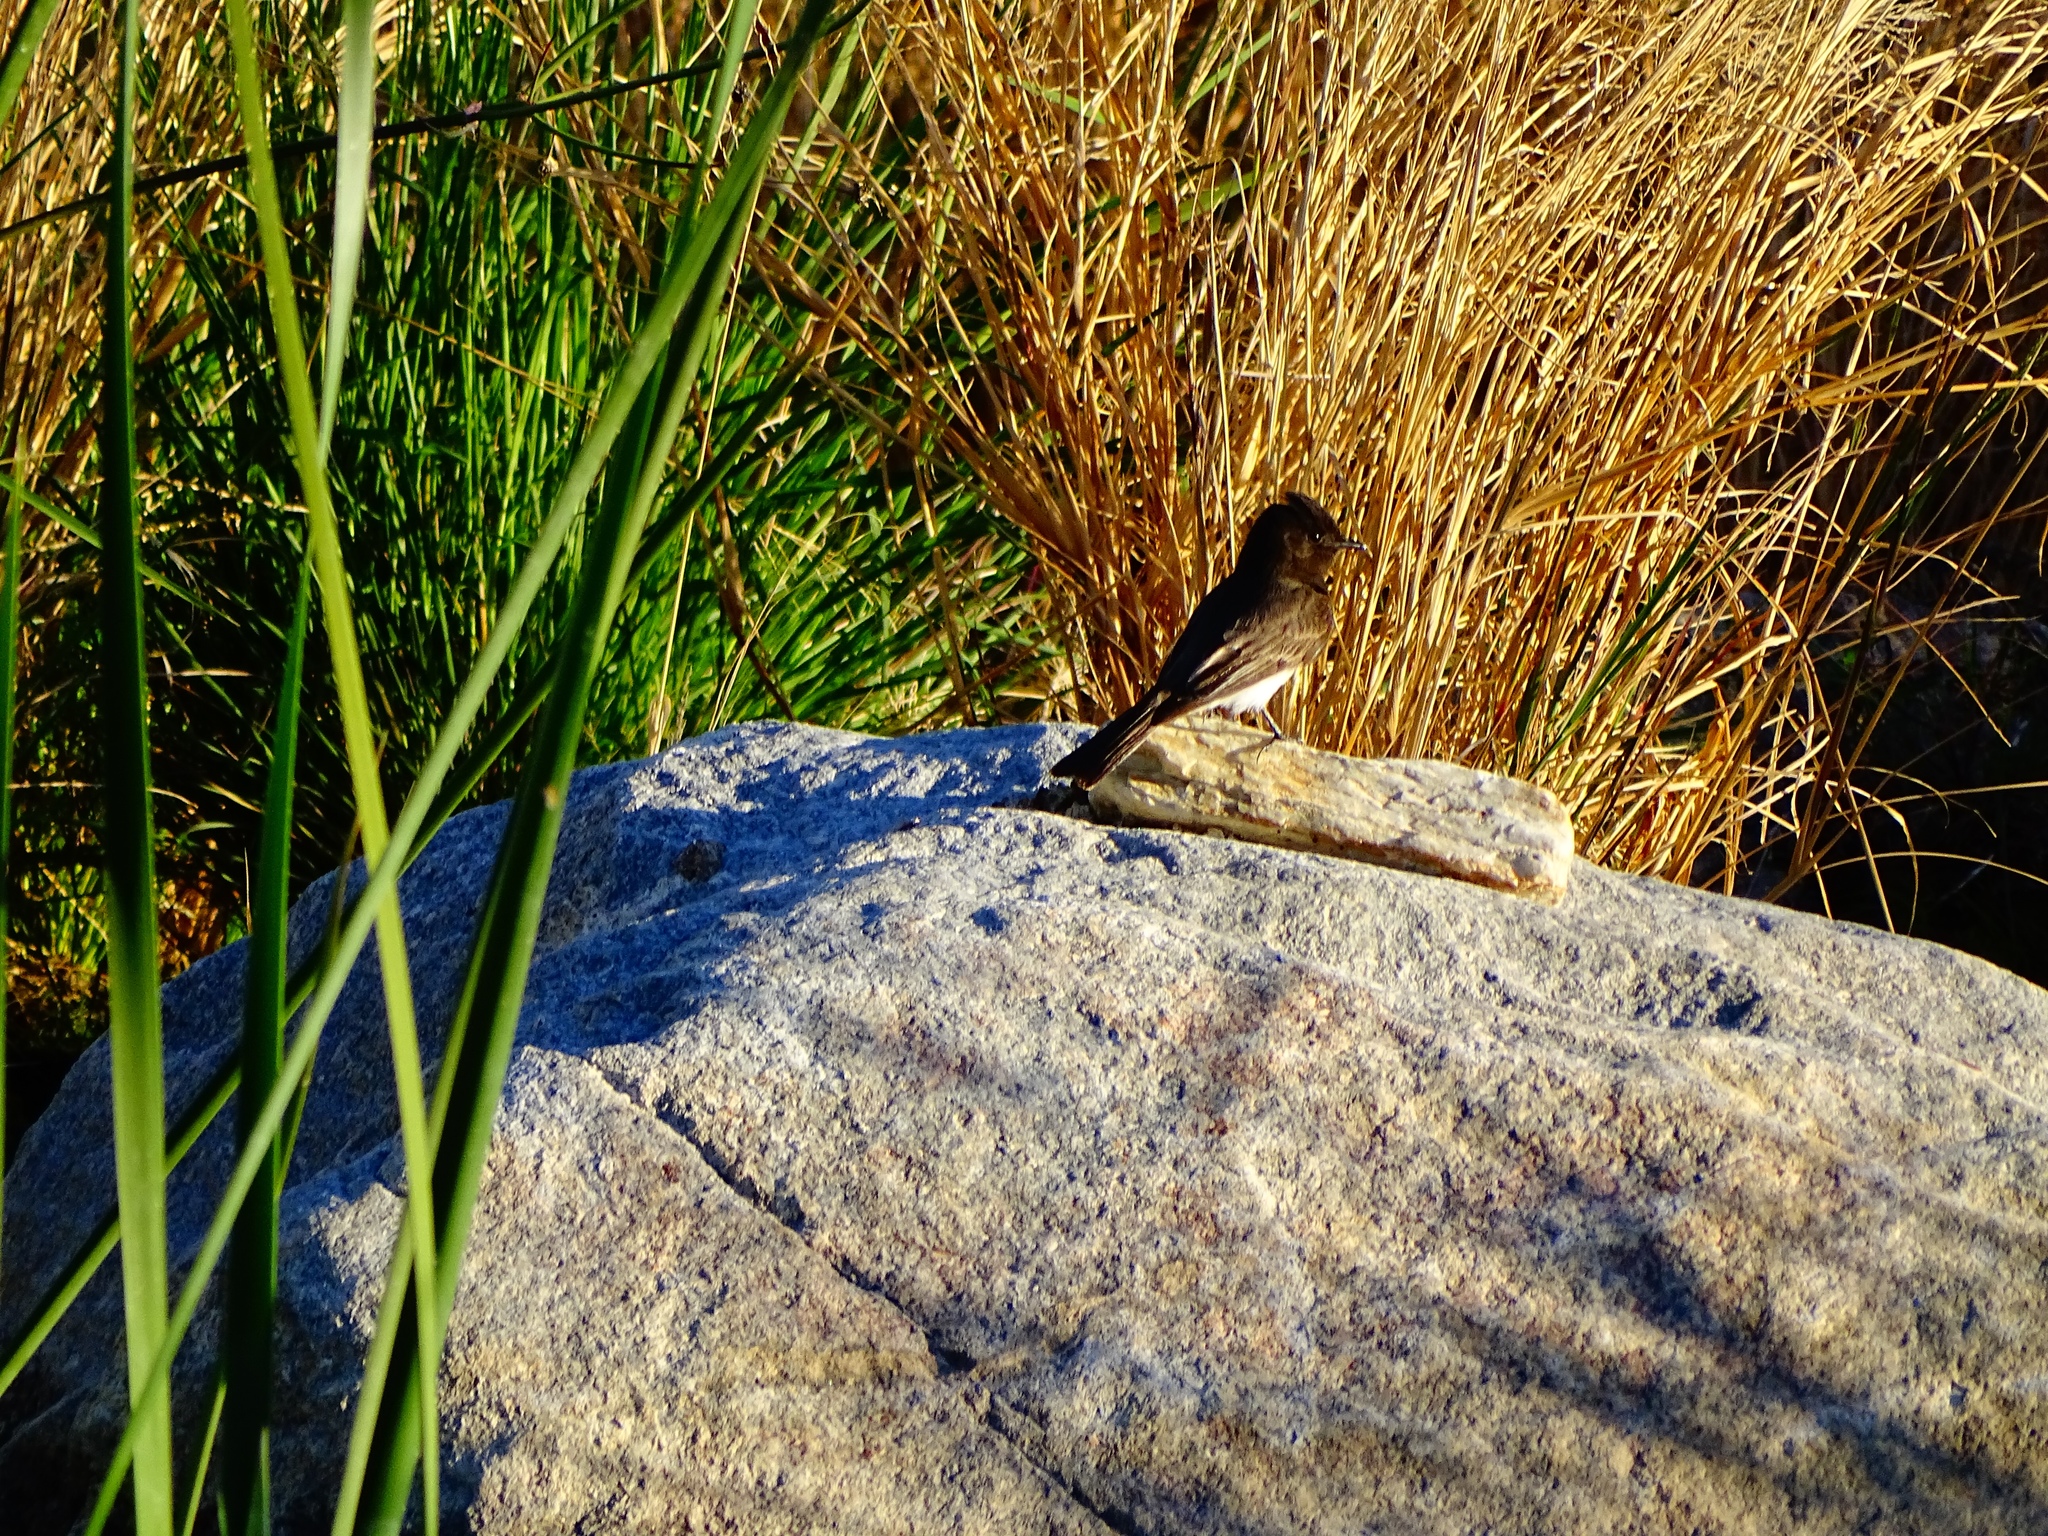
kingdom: Animalia
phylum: Chordata
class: Aves
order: Passeriformes
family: Tyrannidae
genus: Sayornis
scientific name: Sayornis nigricans
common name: Black phoebe
